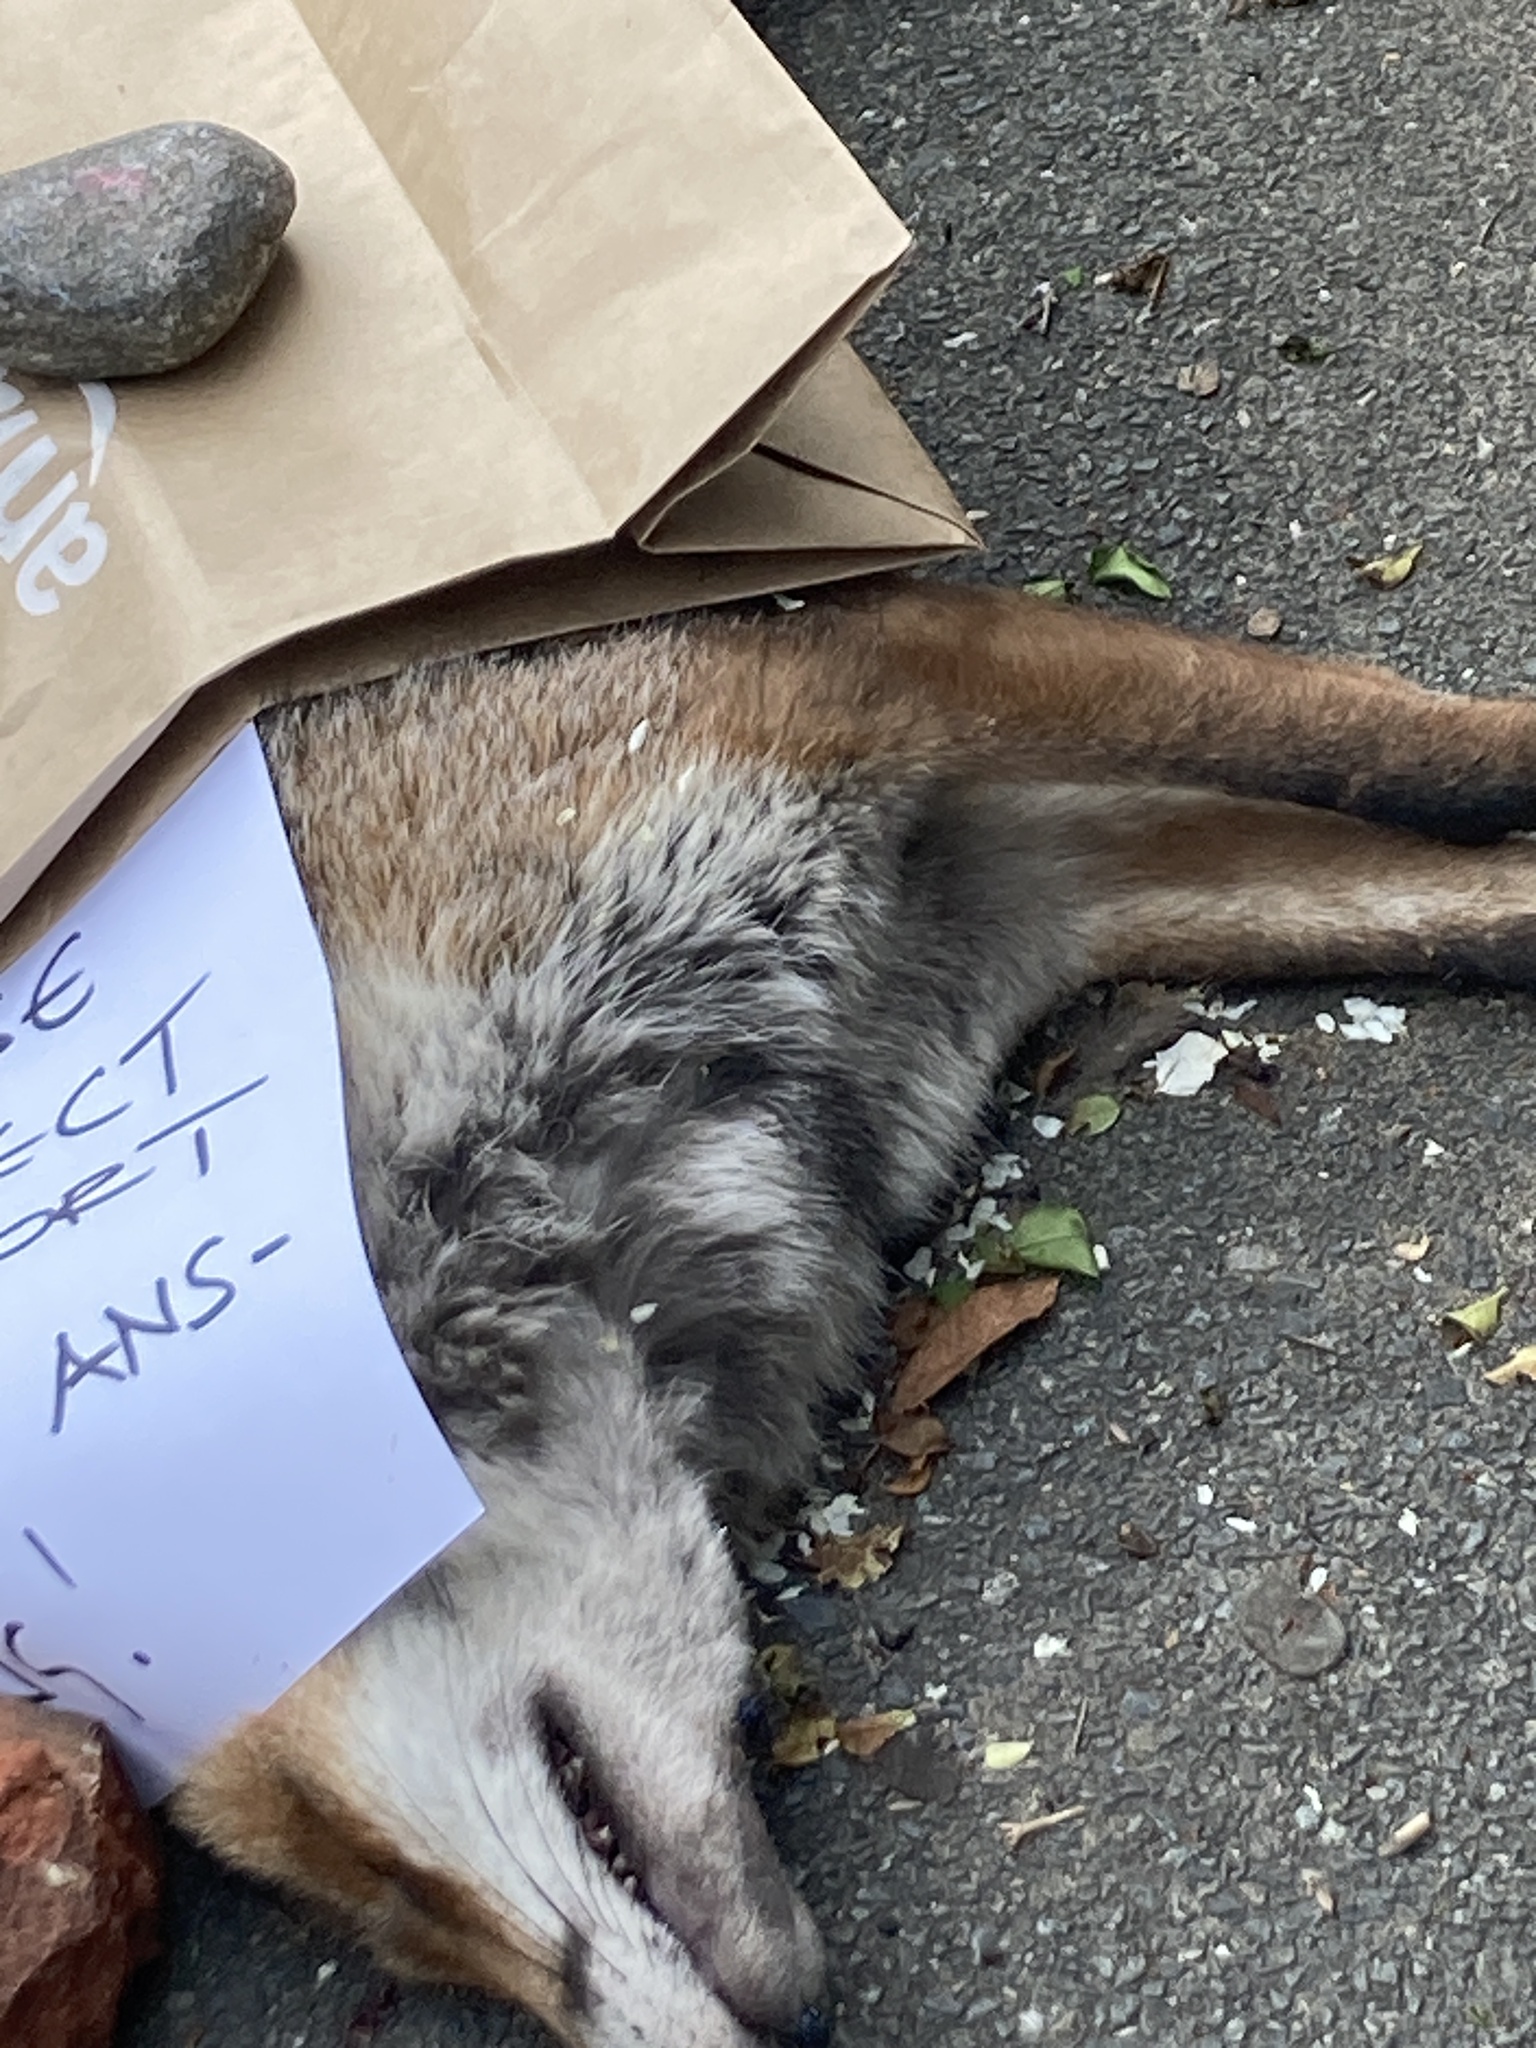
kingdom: Animalia
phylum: Chordata
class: Mammalia
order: Carnivora
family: Canidae
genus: Vulpes
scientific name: Vulpes vulpes
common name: Red fox
